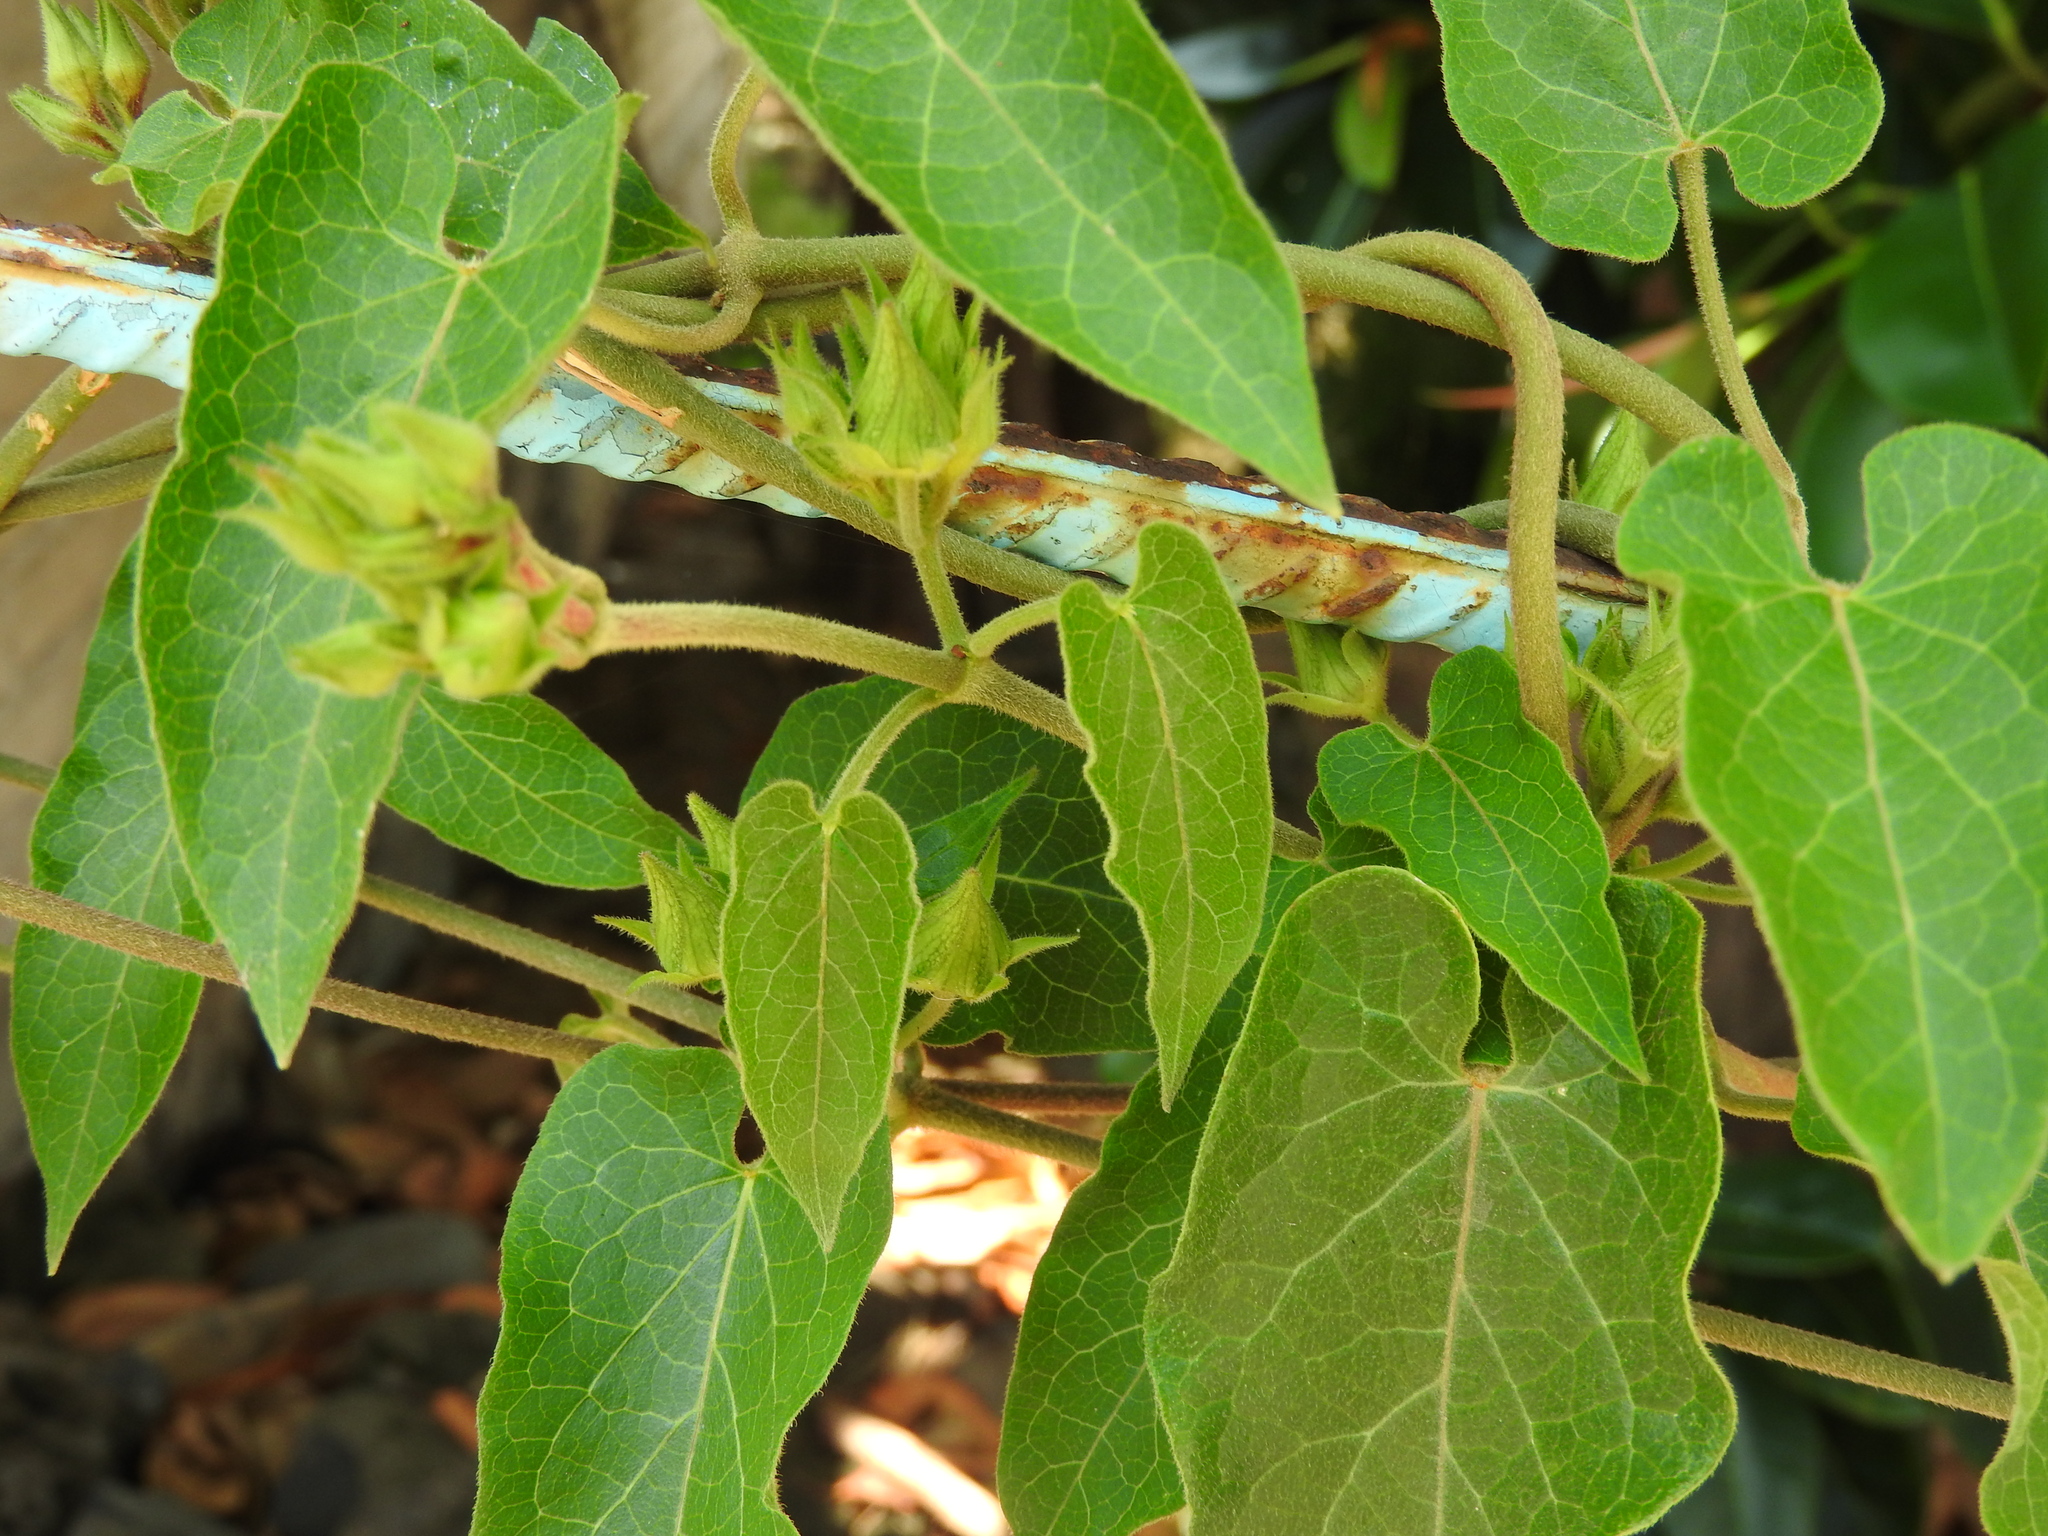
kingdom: Plantae
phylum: Tracheophyta
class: Magnoliopsida
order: Gentianales
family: Apocynaceae
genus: Gonolobus
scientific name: Gonolobus grandiflorus
